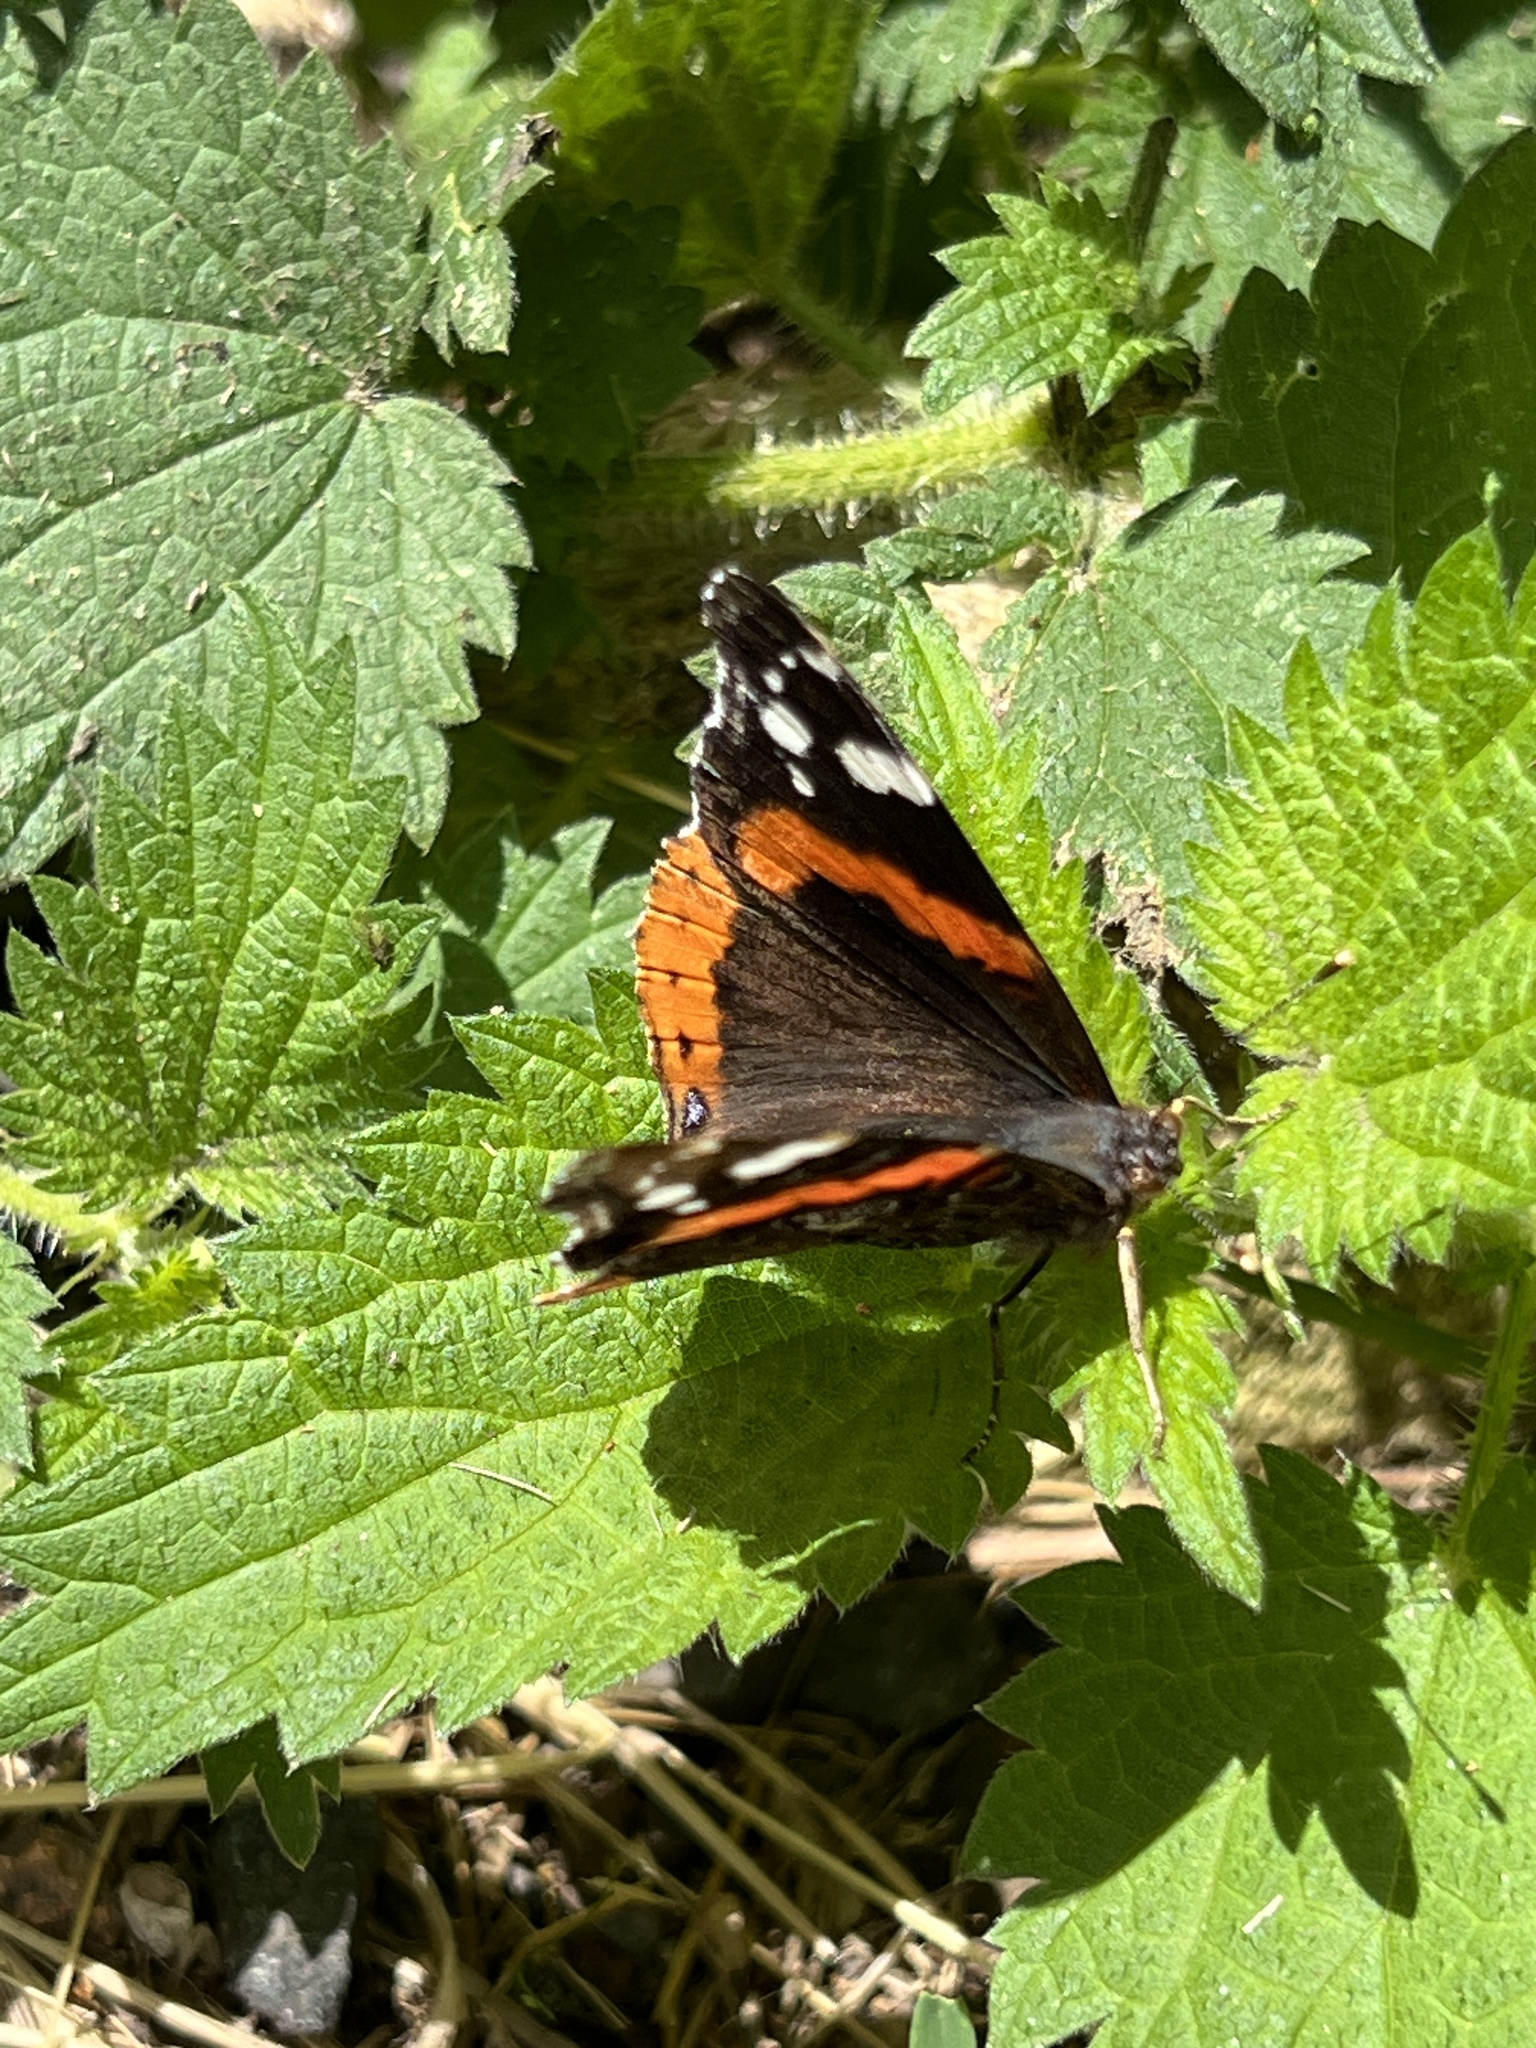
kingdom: Animalia
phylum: Arthropoda
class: Insecta
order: Lepidoptera
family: Nymphalidae
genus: Vanessa
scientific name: Vanessa atalanta
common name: Red admiral
